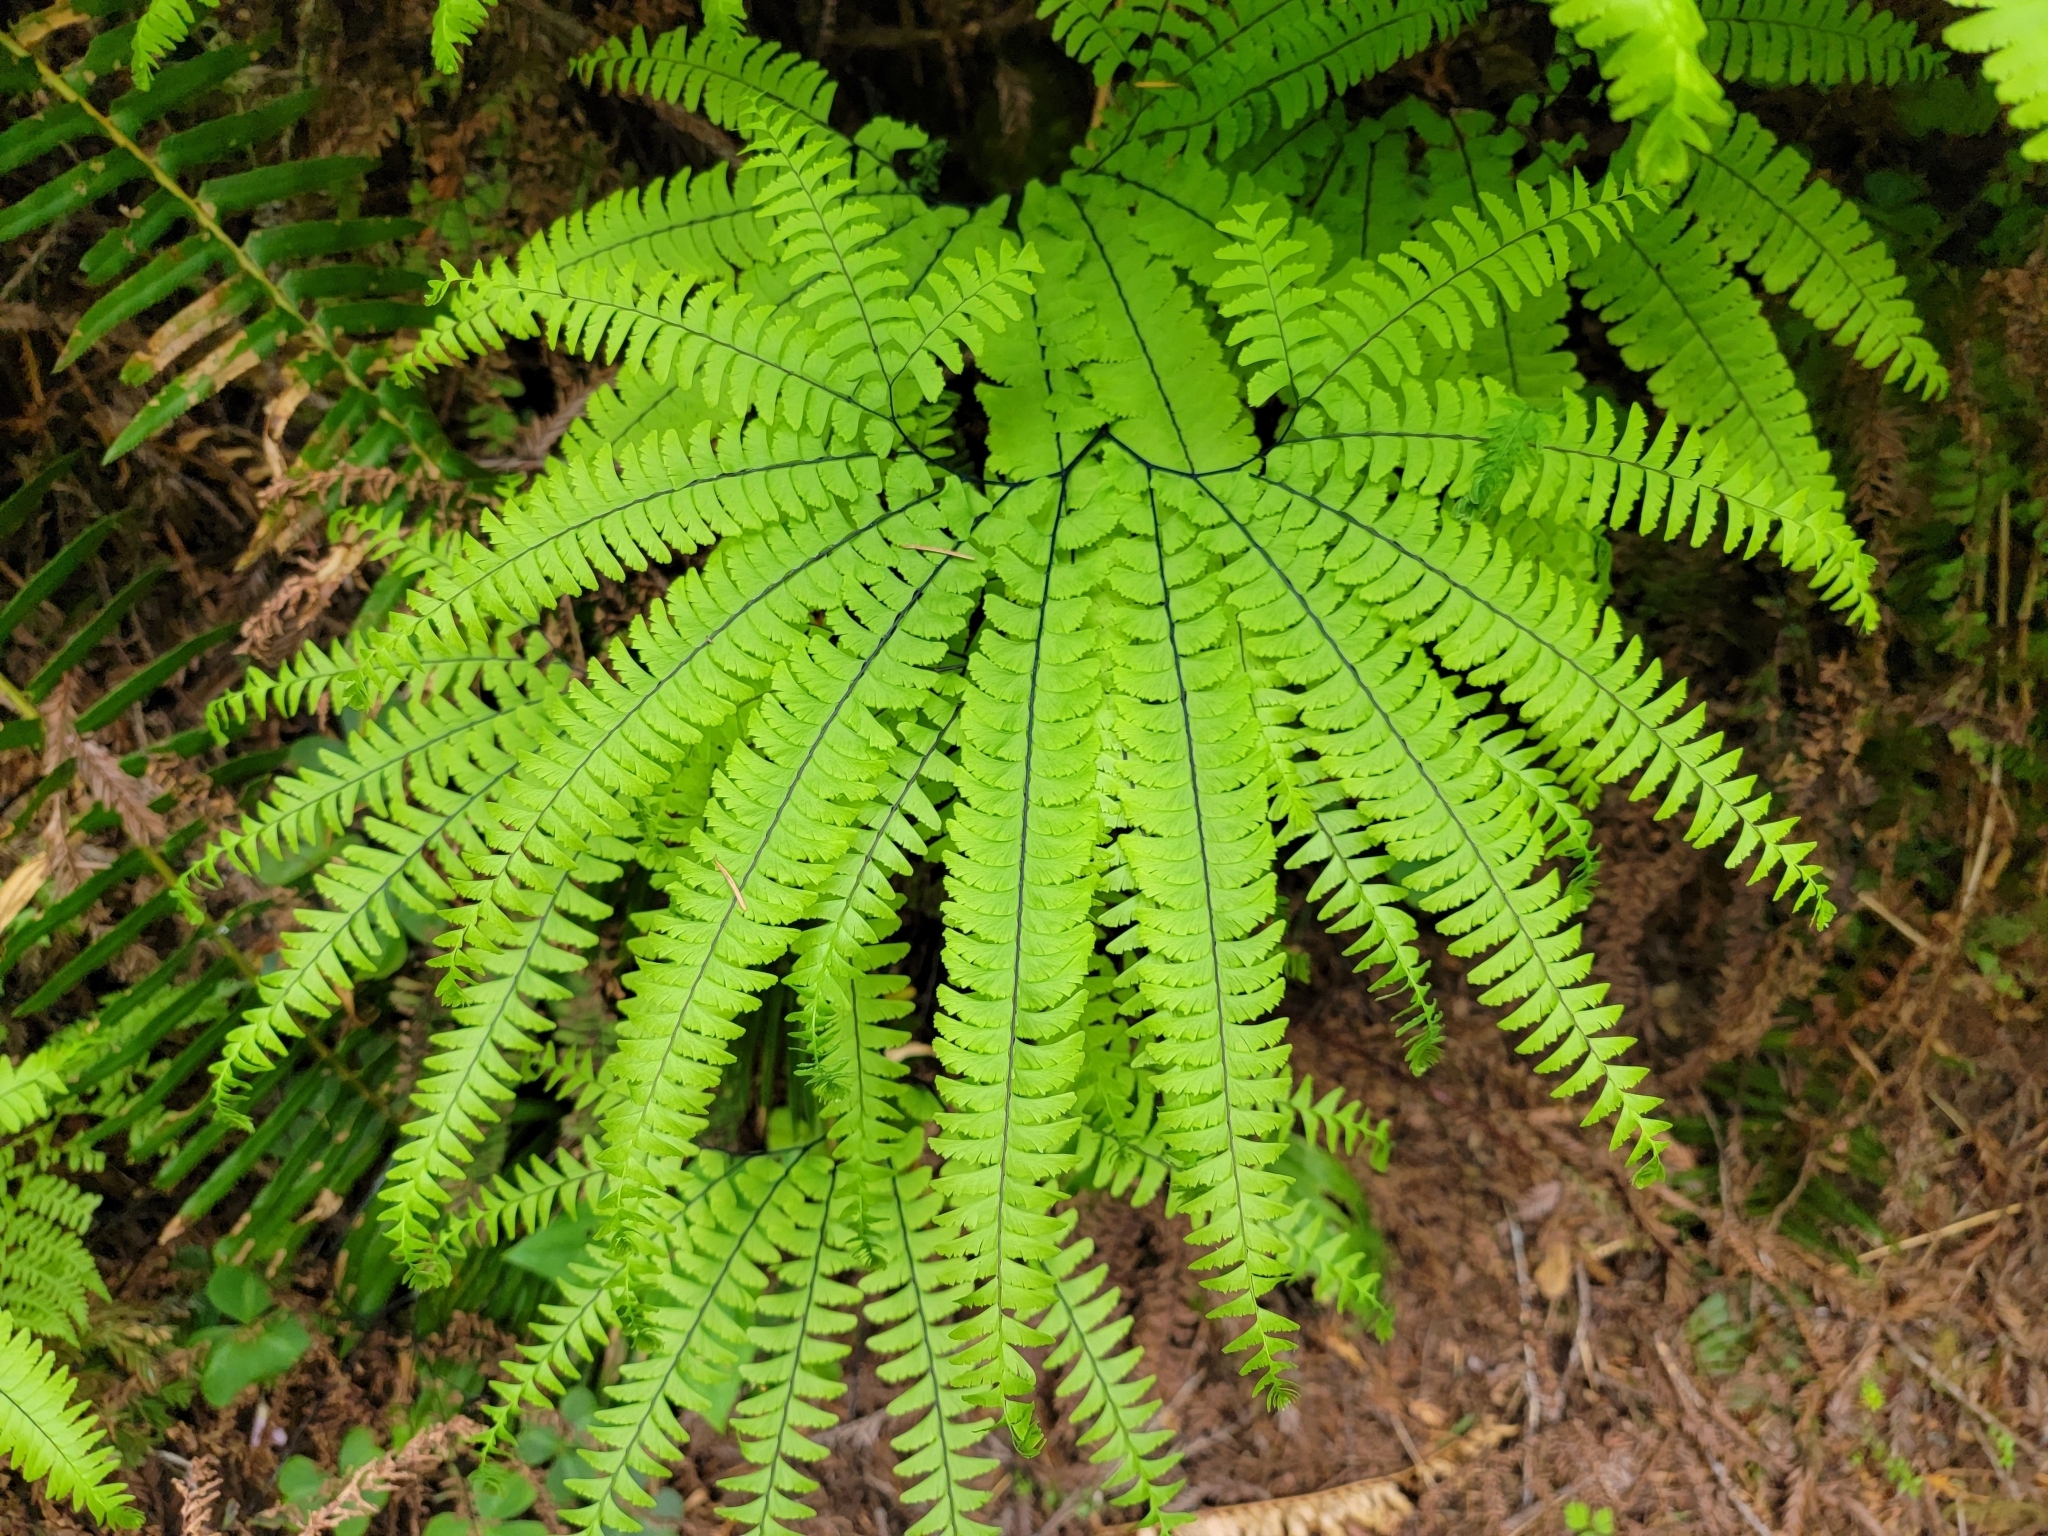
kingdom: Plantae
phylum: Tracheophyta
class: Polypodiopsida
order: Polypodiales
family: Pteridaceae
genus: Adiantum
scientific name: Adiantum aleuticum
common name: Aleutian maidenhair fern
